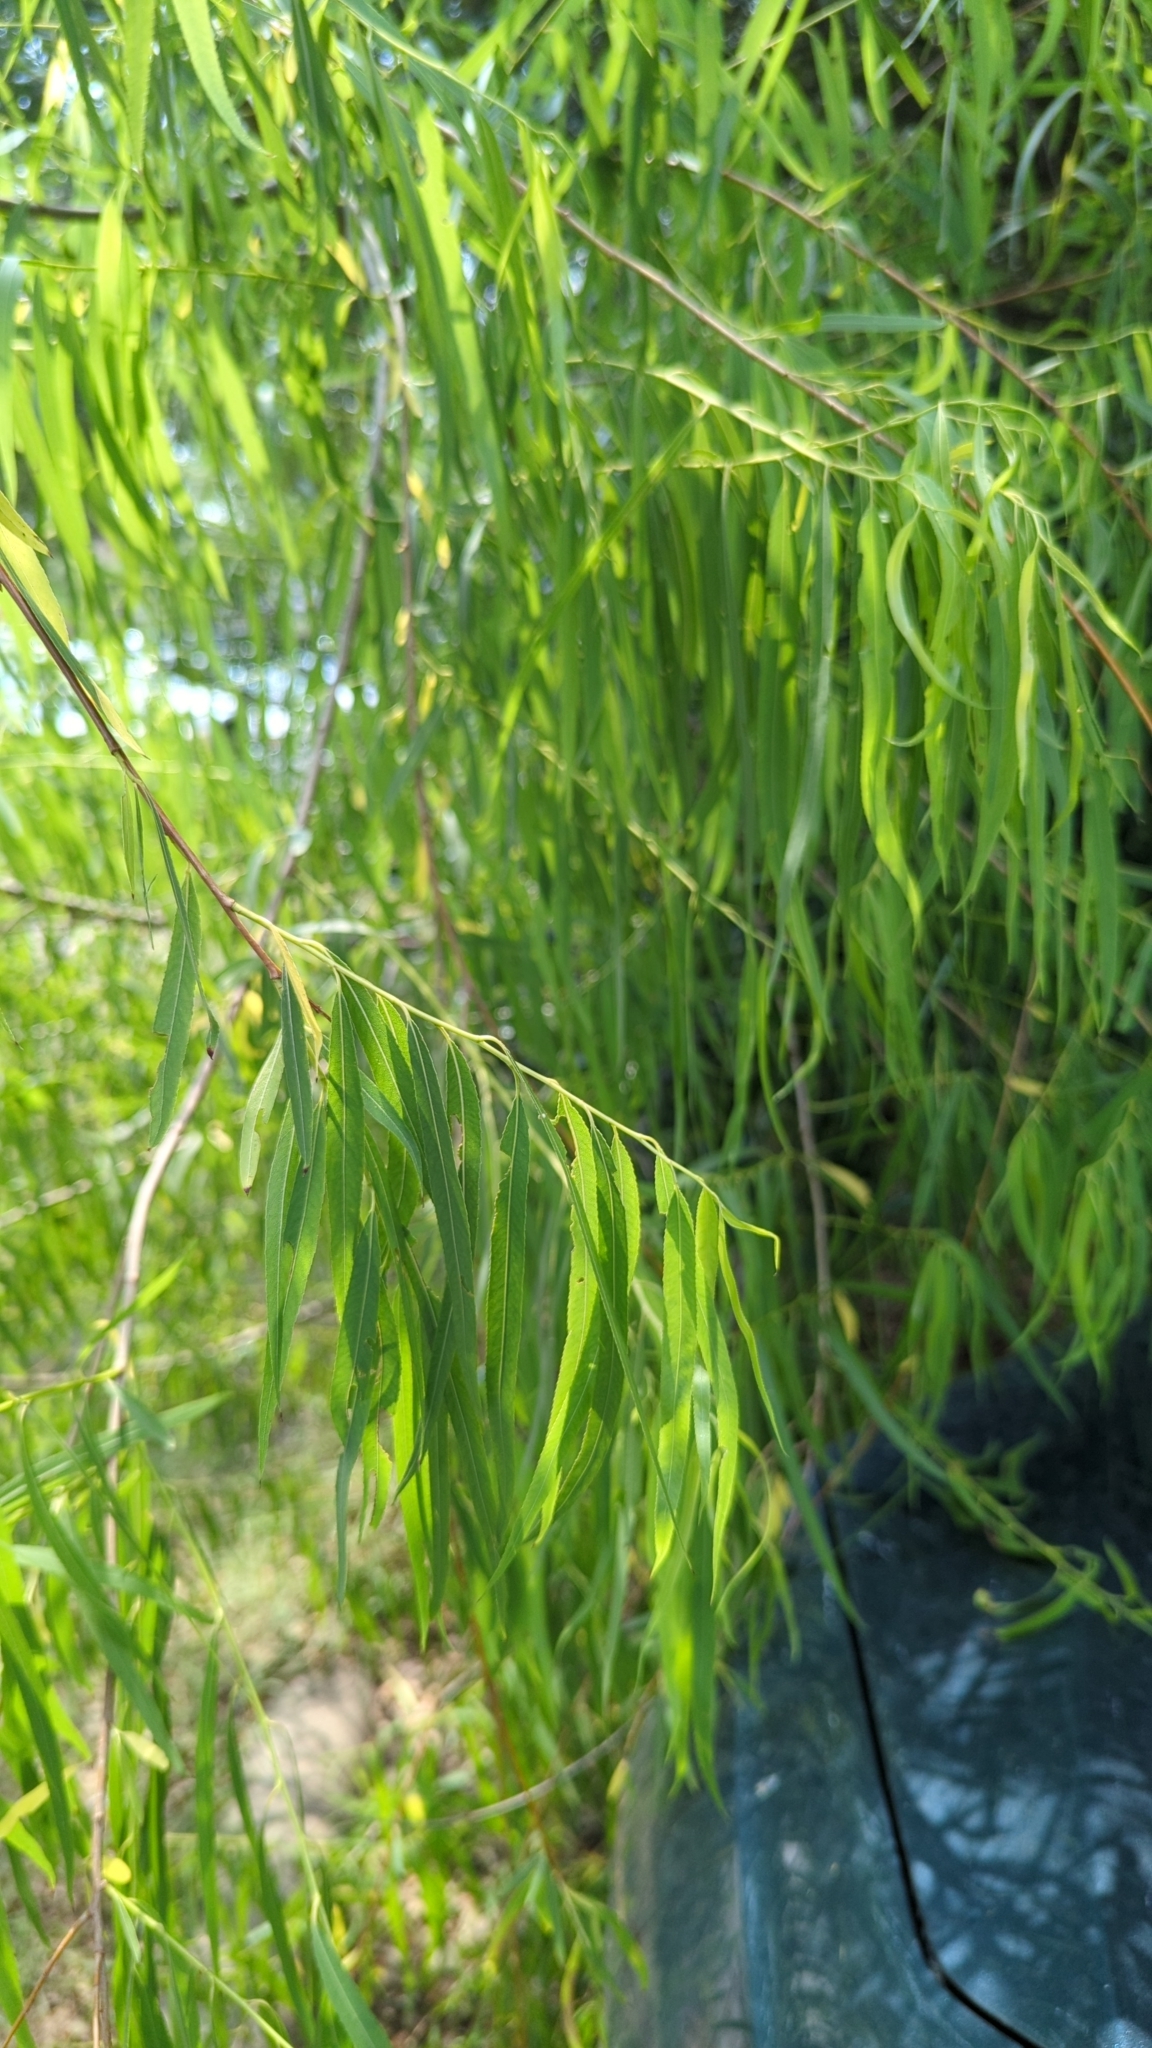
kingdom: Plantae
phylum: Tracheophyta
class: Magnoliopsida
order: Malpighiales
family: Salicaceae
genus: Salix
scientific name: Salix nigra
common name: Black willow
